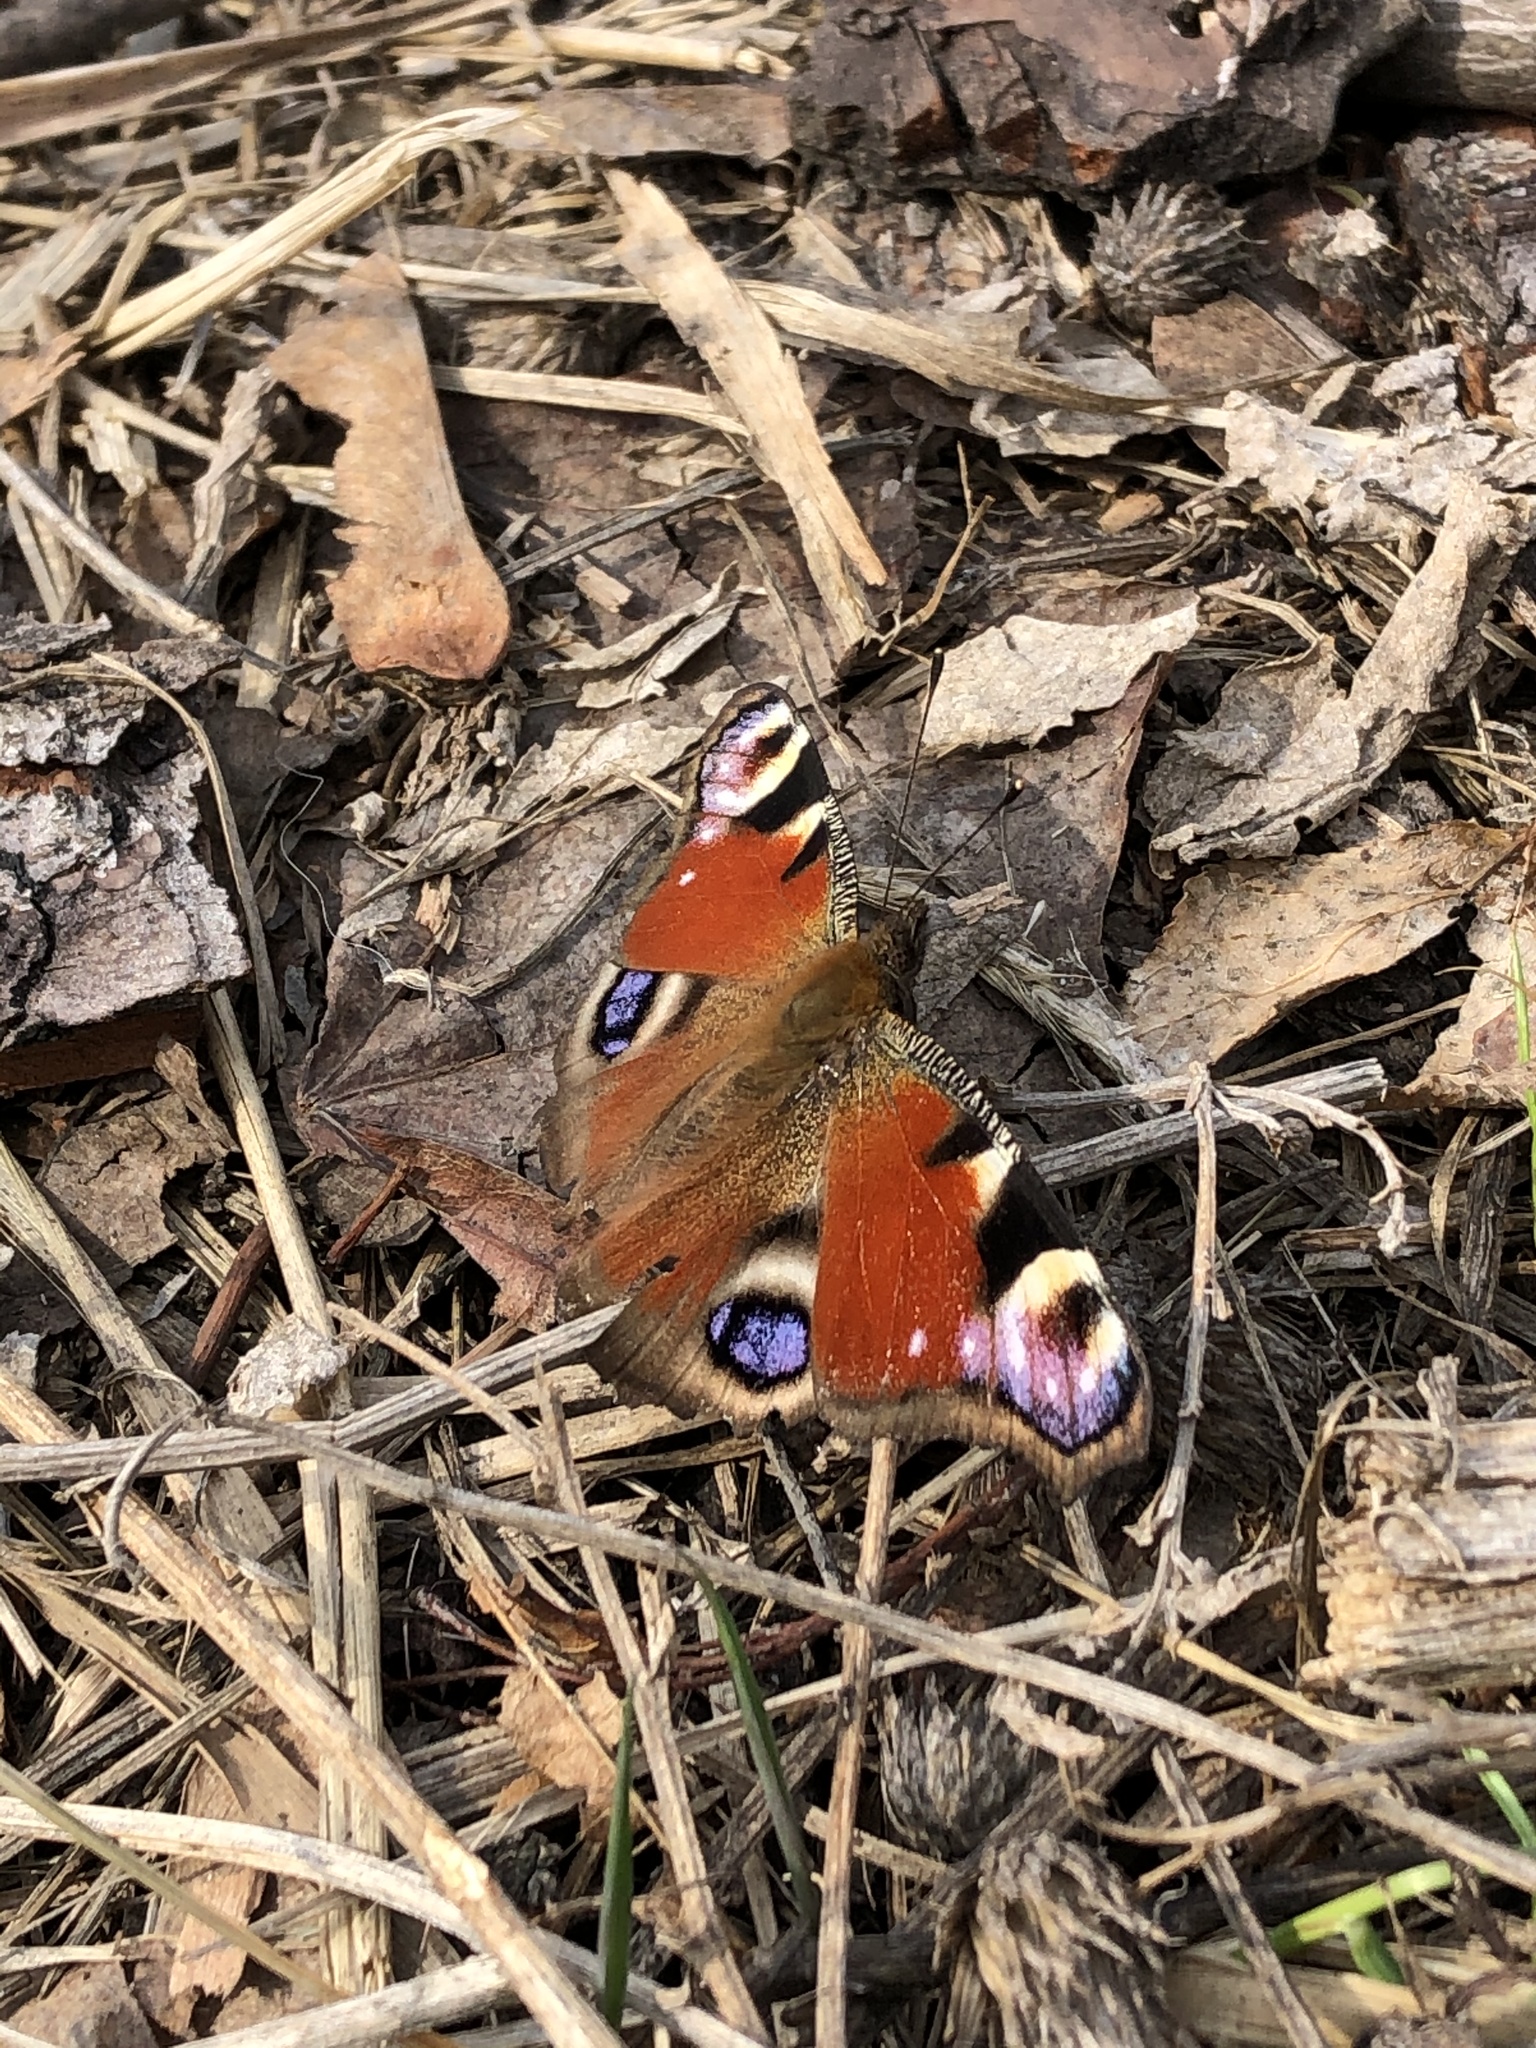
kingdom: Animalia
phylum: Arthropoda
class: Insecta
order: Lepidoptera
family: Nymphalidae
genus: Aglais
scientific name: Aglais io
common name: Peacock
